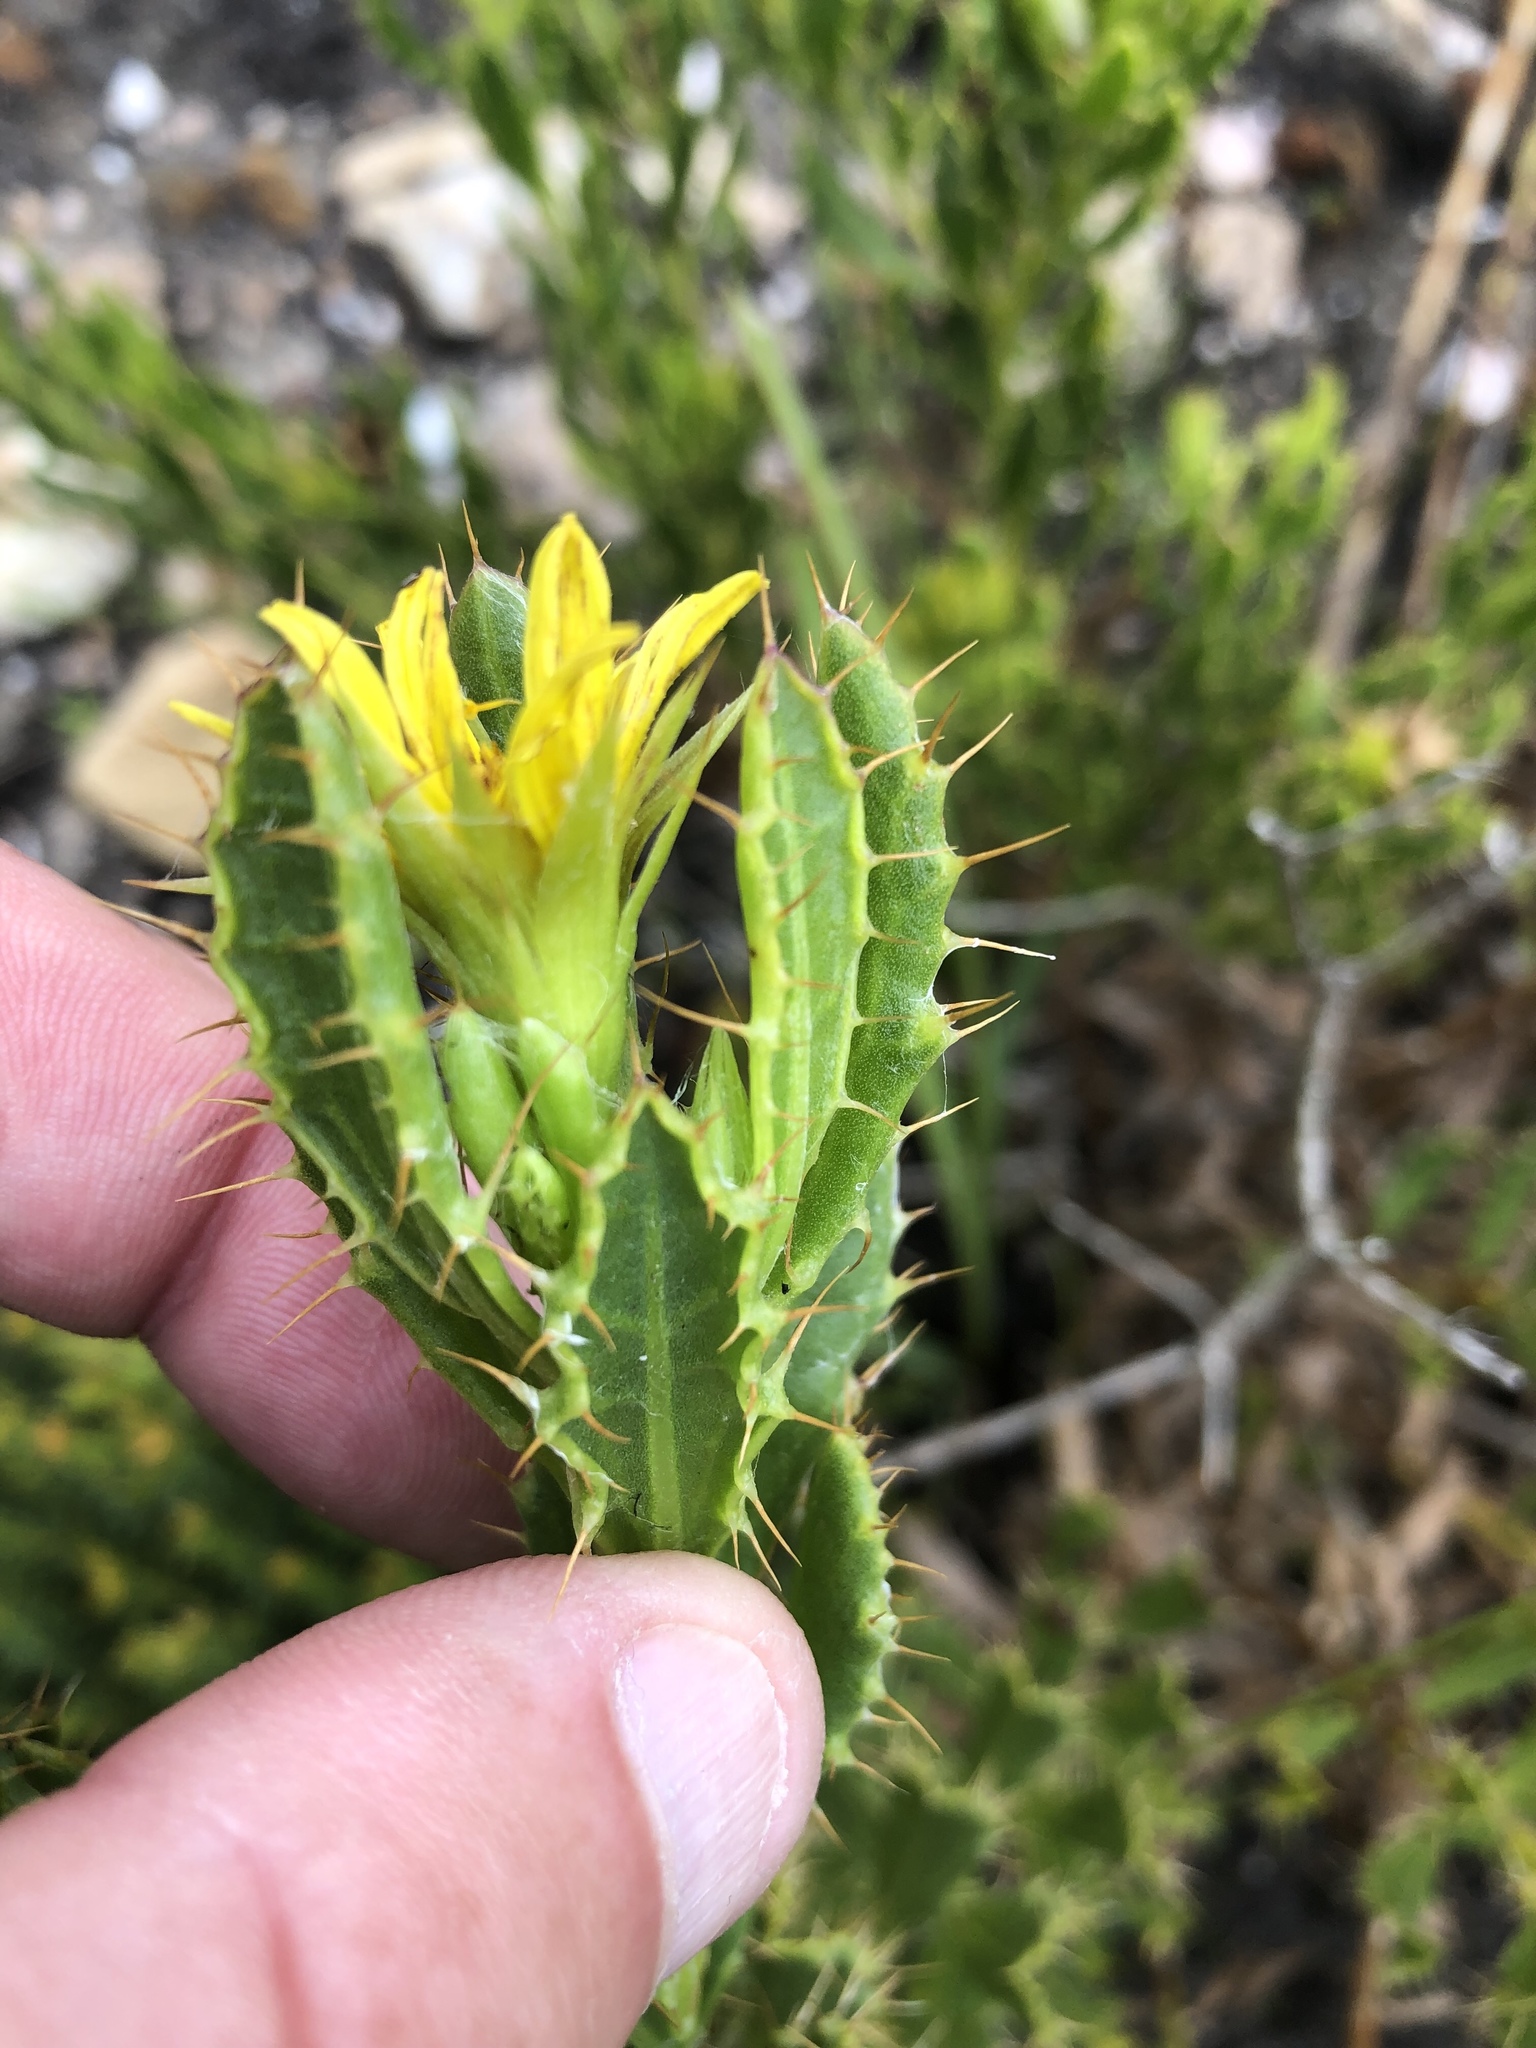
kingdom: Plantae
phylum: Tracheophyta
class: Magnoliopsida
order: Asterales
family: Asteraceae
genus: Cullumia
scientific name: Cullumia aculeata
